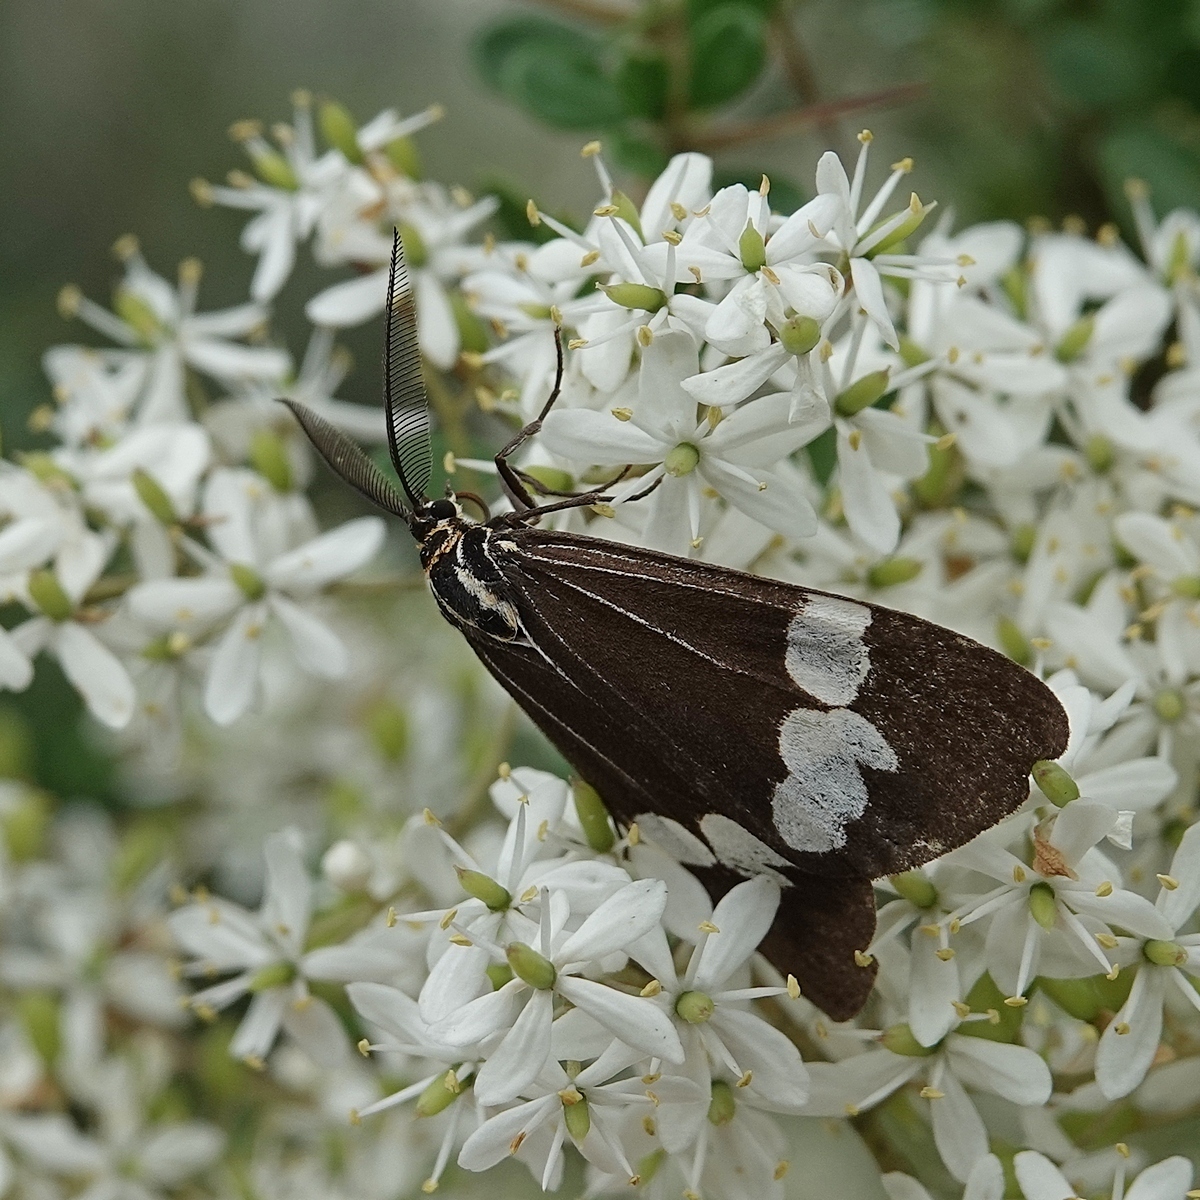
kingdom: Animalia
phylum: Arthropoda
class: Insecta
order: Lepidoptera
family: Erebidae
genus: Nyctemera
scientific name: Nyctemera amicus
